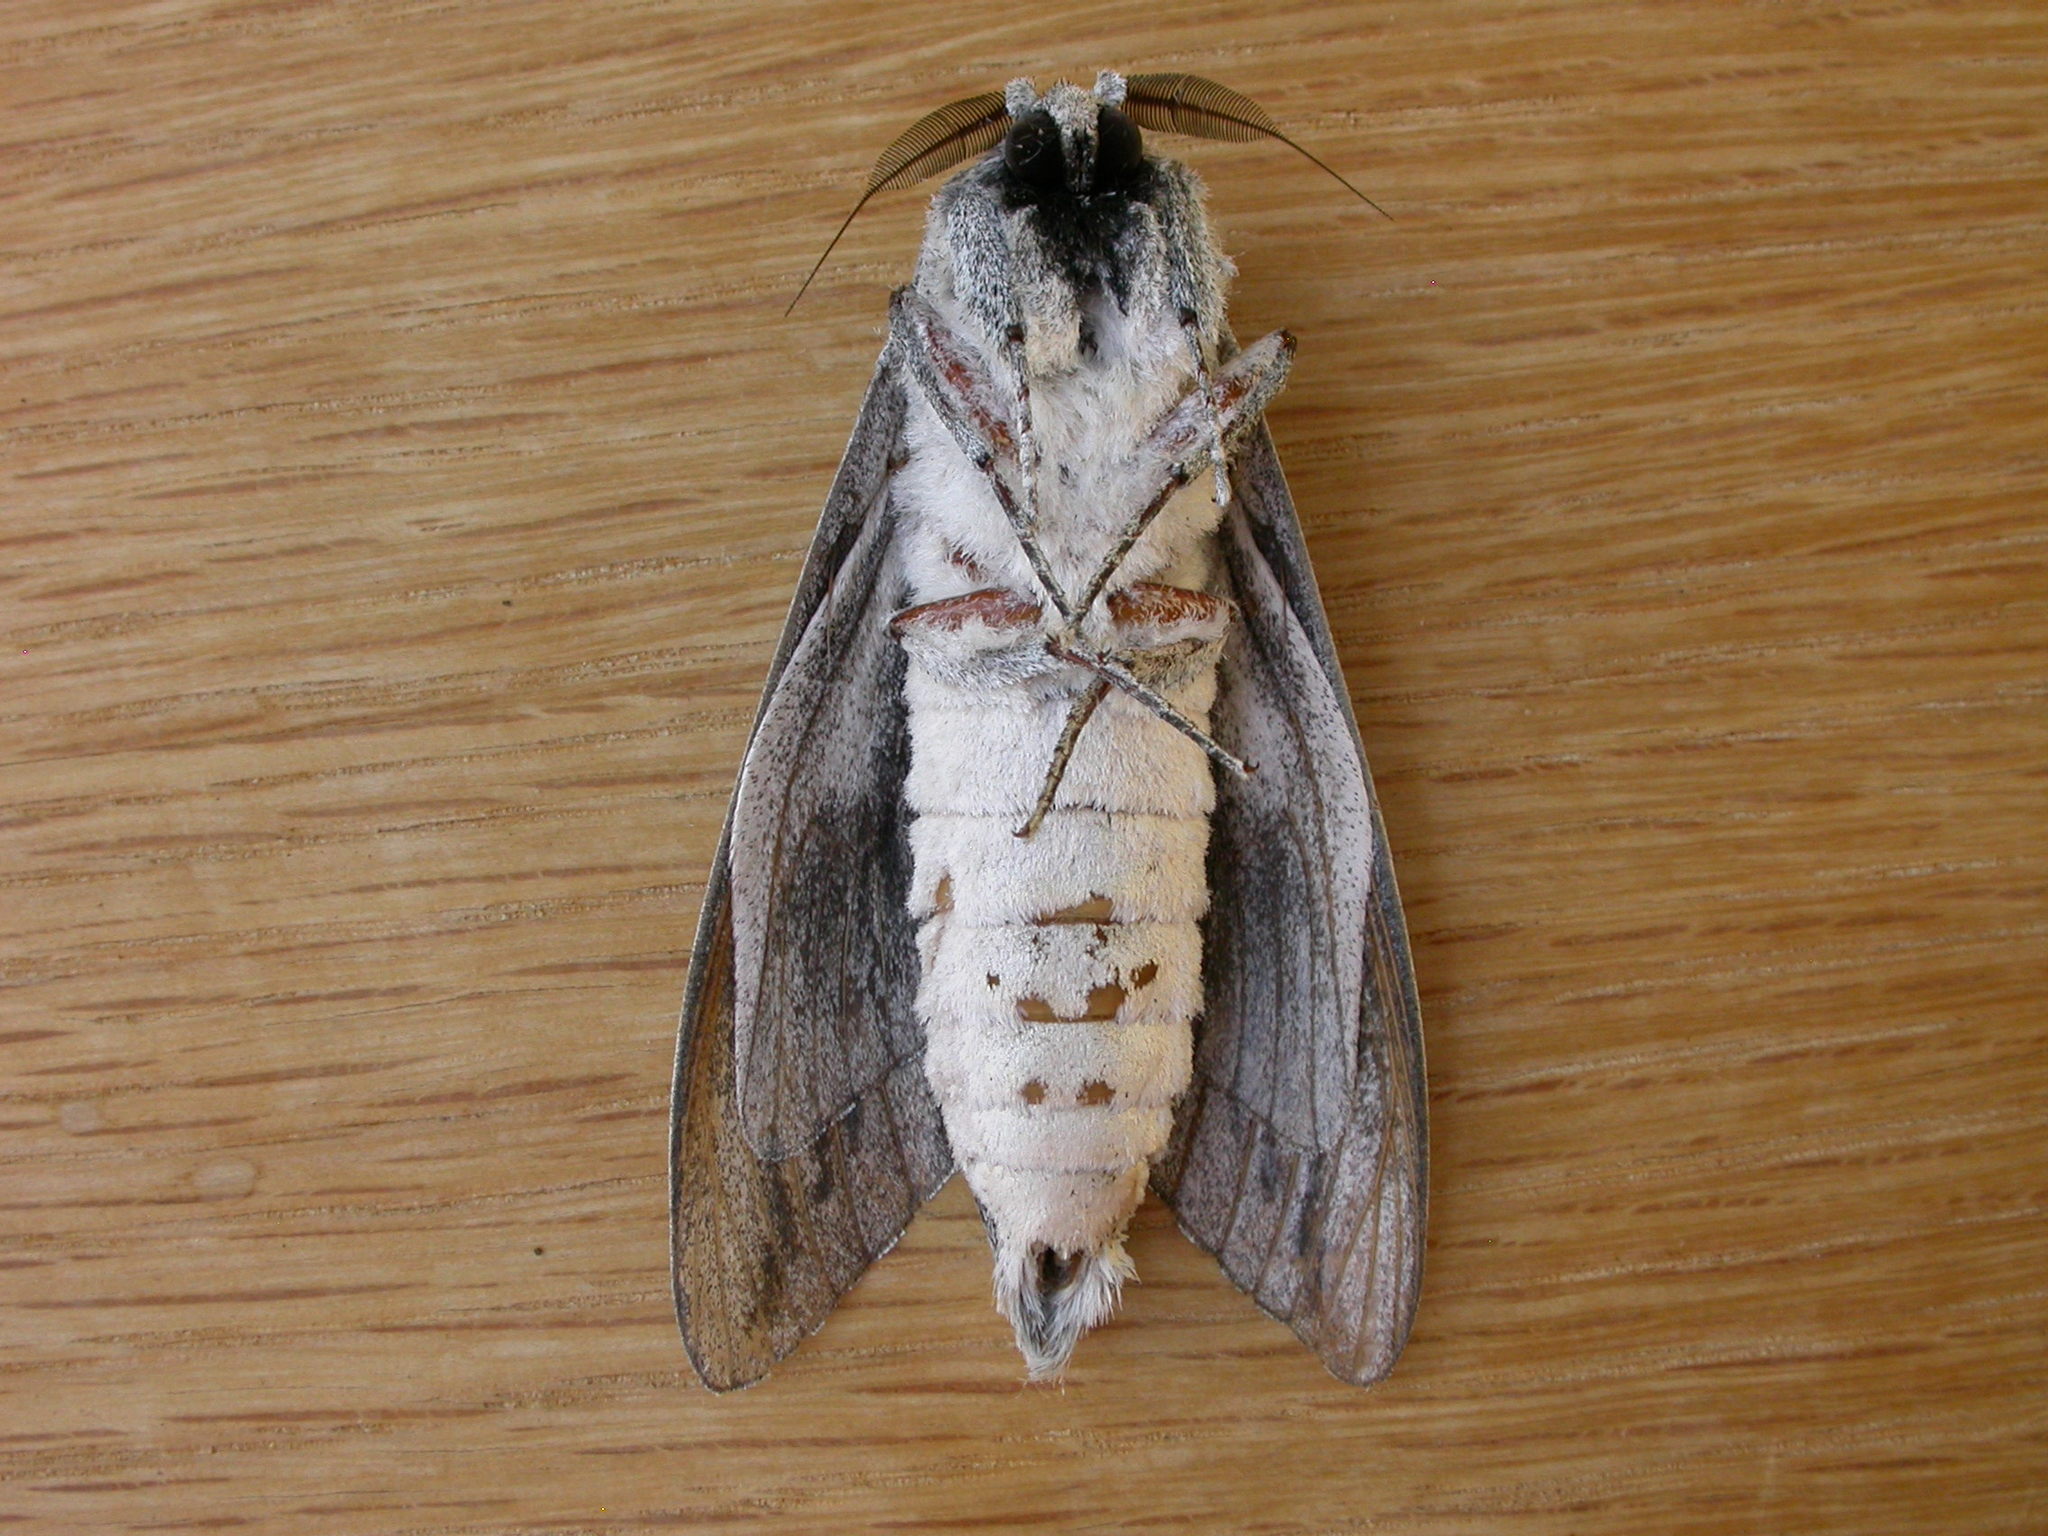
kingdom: Animalia
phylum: Arthropoda
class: Insecta
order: Lepidoptera
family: Cossidae
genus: Endoxyla
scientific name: Endoxyla
